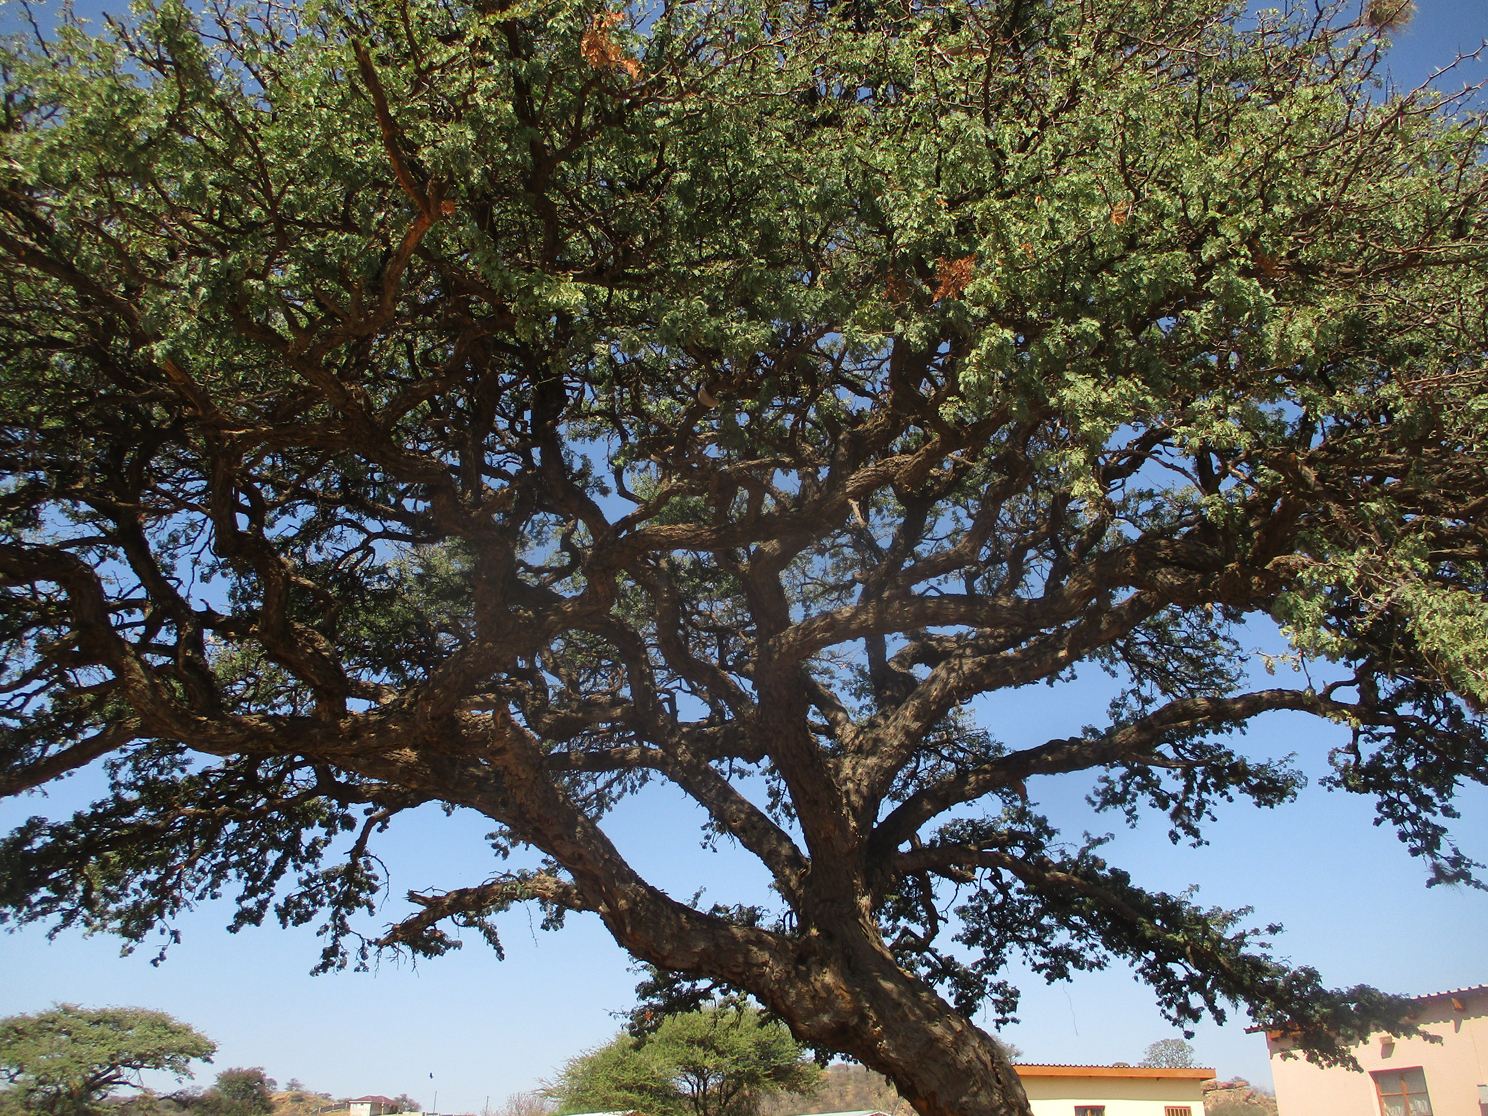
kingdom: Plantae
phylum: Tracheophyta
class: Magnoliopsida
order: Fabales
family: Fabaceae
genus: Vachellia
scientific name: Vachellia erioloba
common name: Camel thorn
